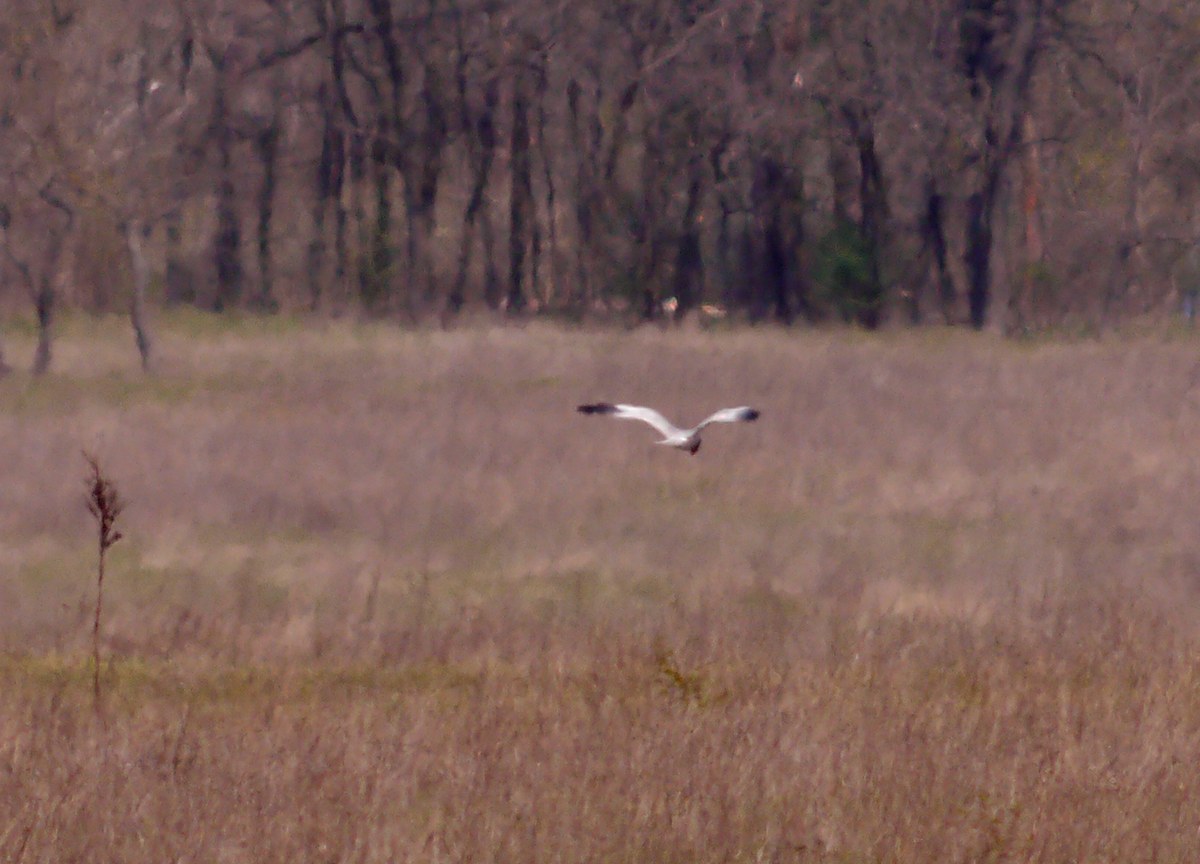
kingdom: Animalia
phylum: Chordata
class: Aves
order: Accipitriformes
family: Accipitridae
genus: Circus
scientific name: Circus cyaneus
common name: Hen harrier
